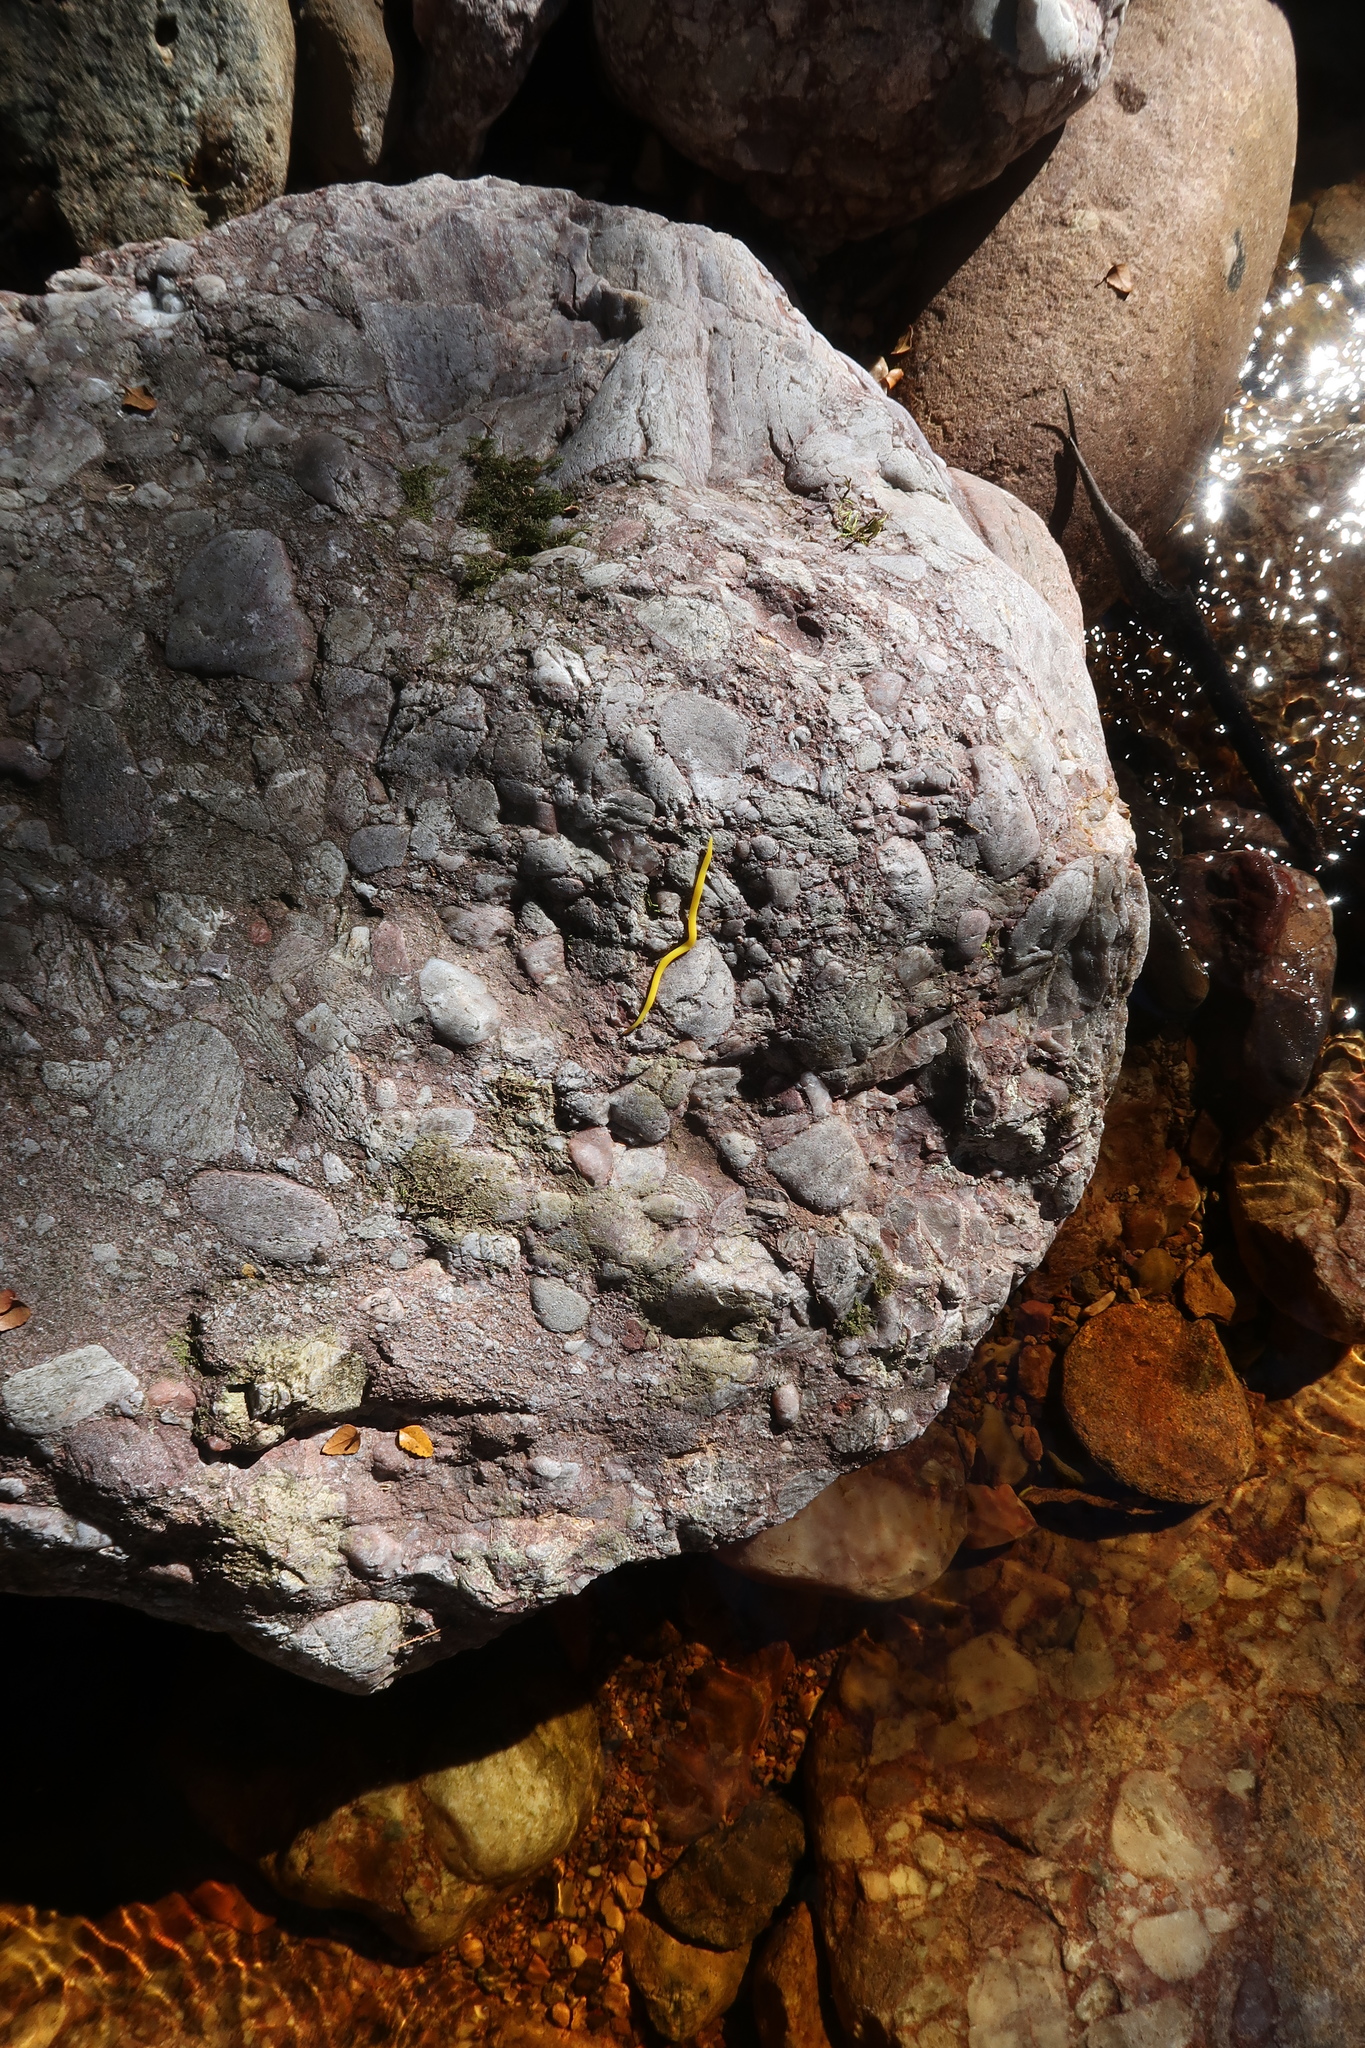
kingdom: Animalia
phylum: Platyhelminthes
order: Tricladida
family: Geoplanidae
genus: Fletchamia
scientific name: Fletchamia sugdeni
